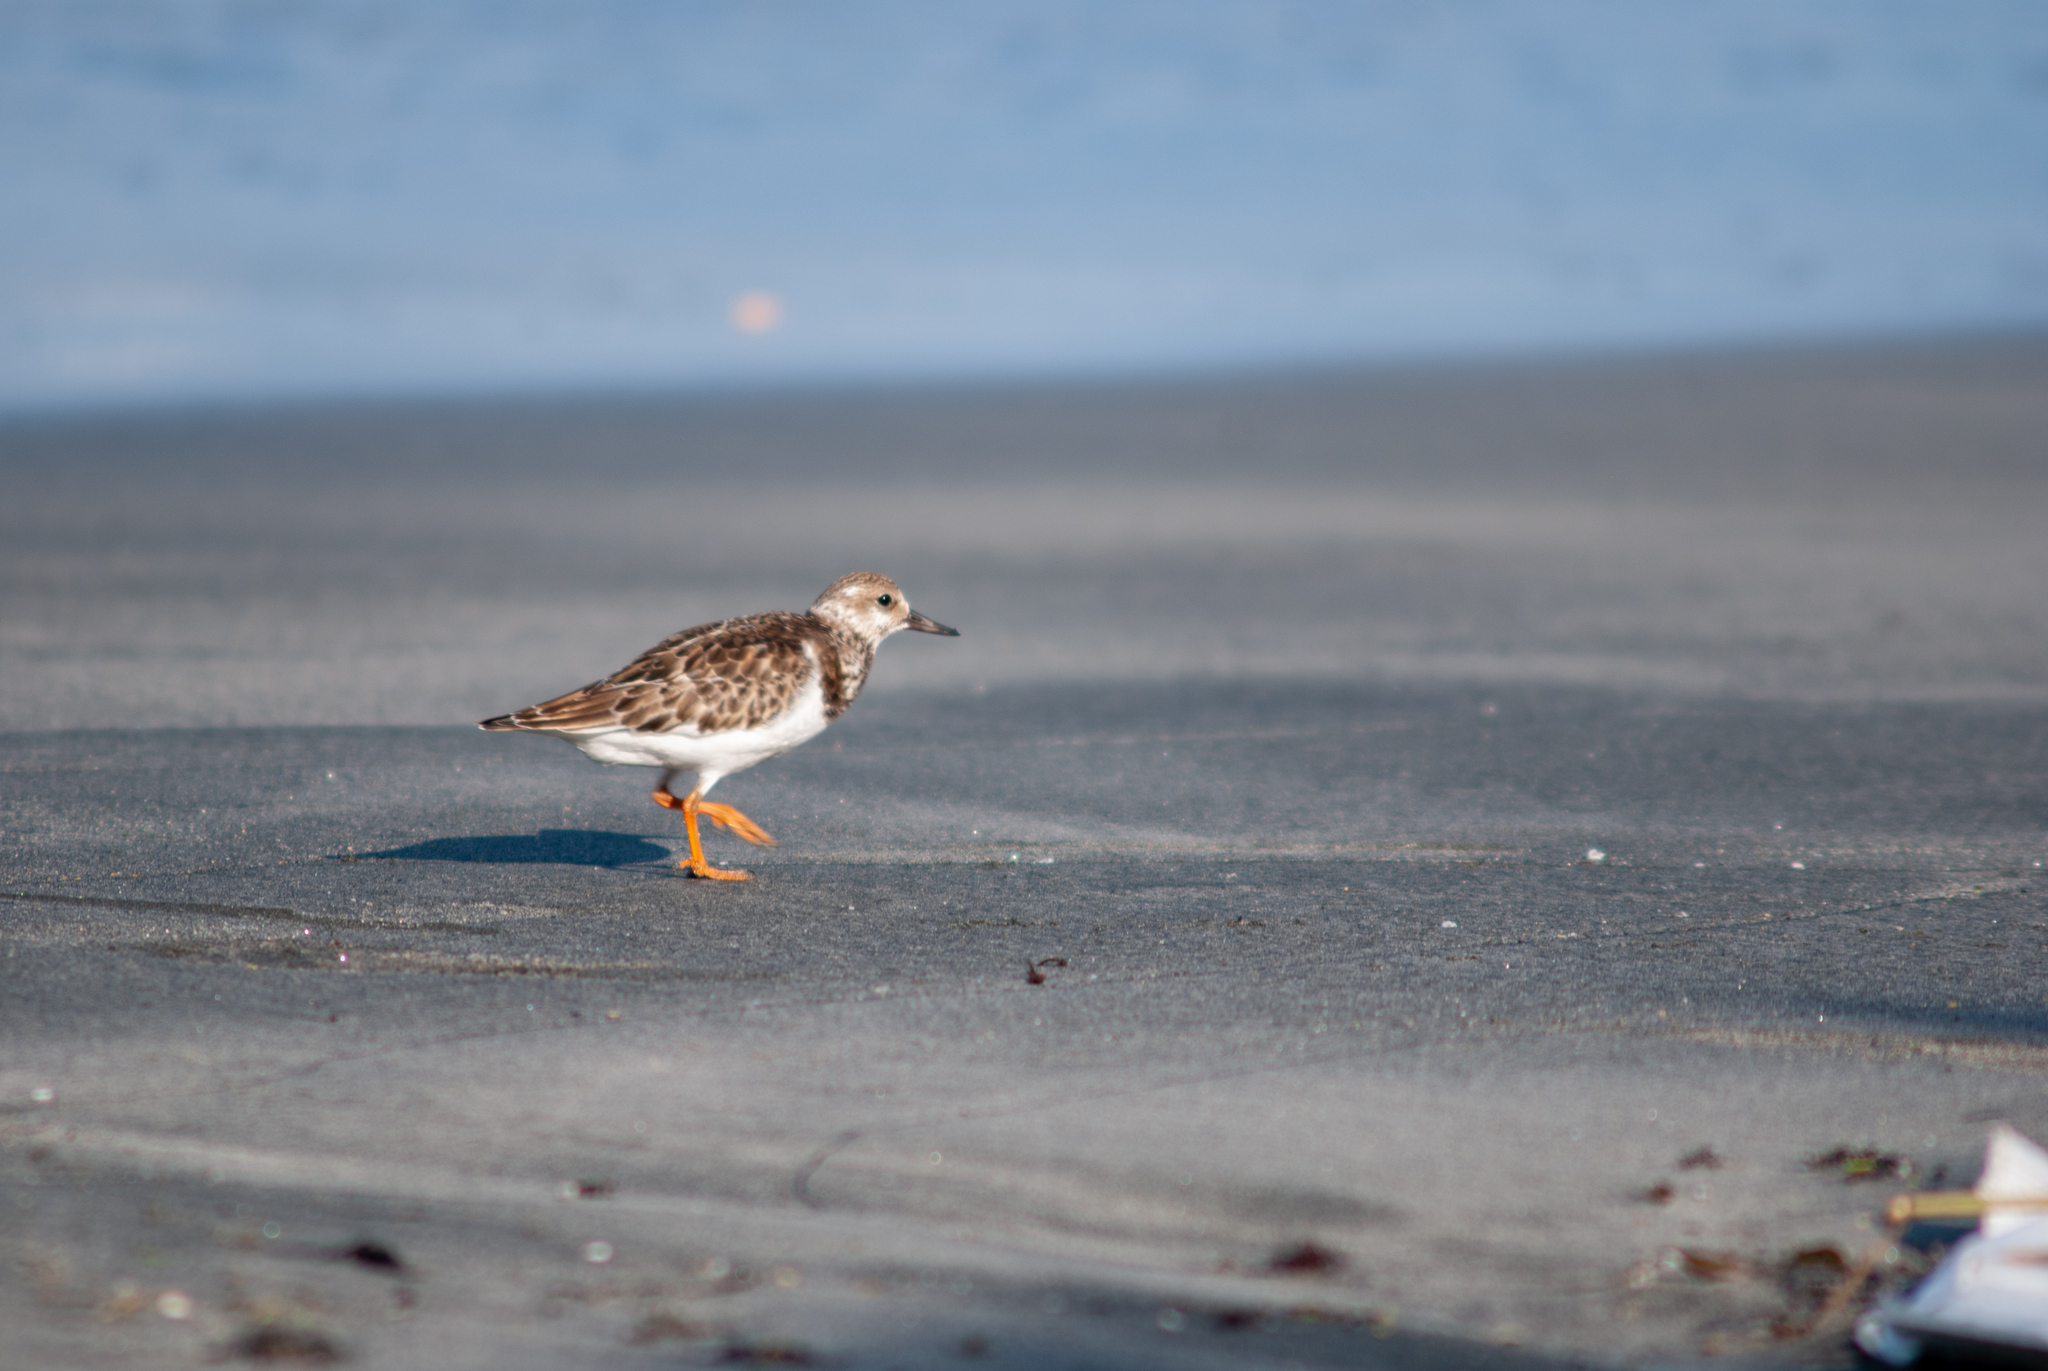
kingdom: Animalia
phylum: Chordata
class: Aves
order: Charadriiformes
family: Scolopacidae
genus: Arenaria
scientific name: Arenaria interpres
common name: Ruddy turnstone
